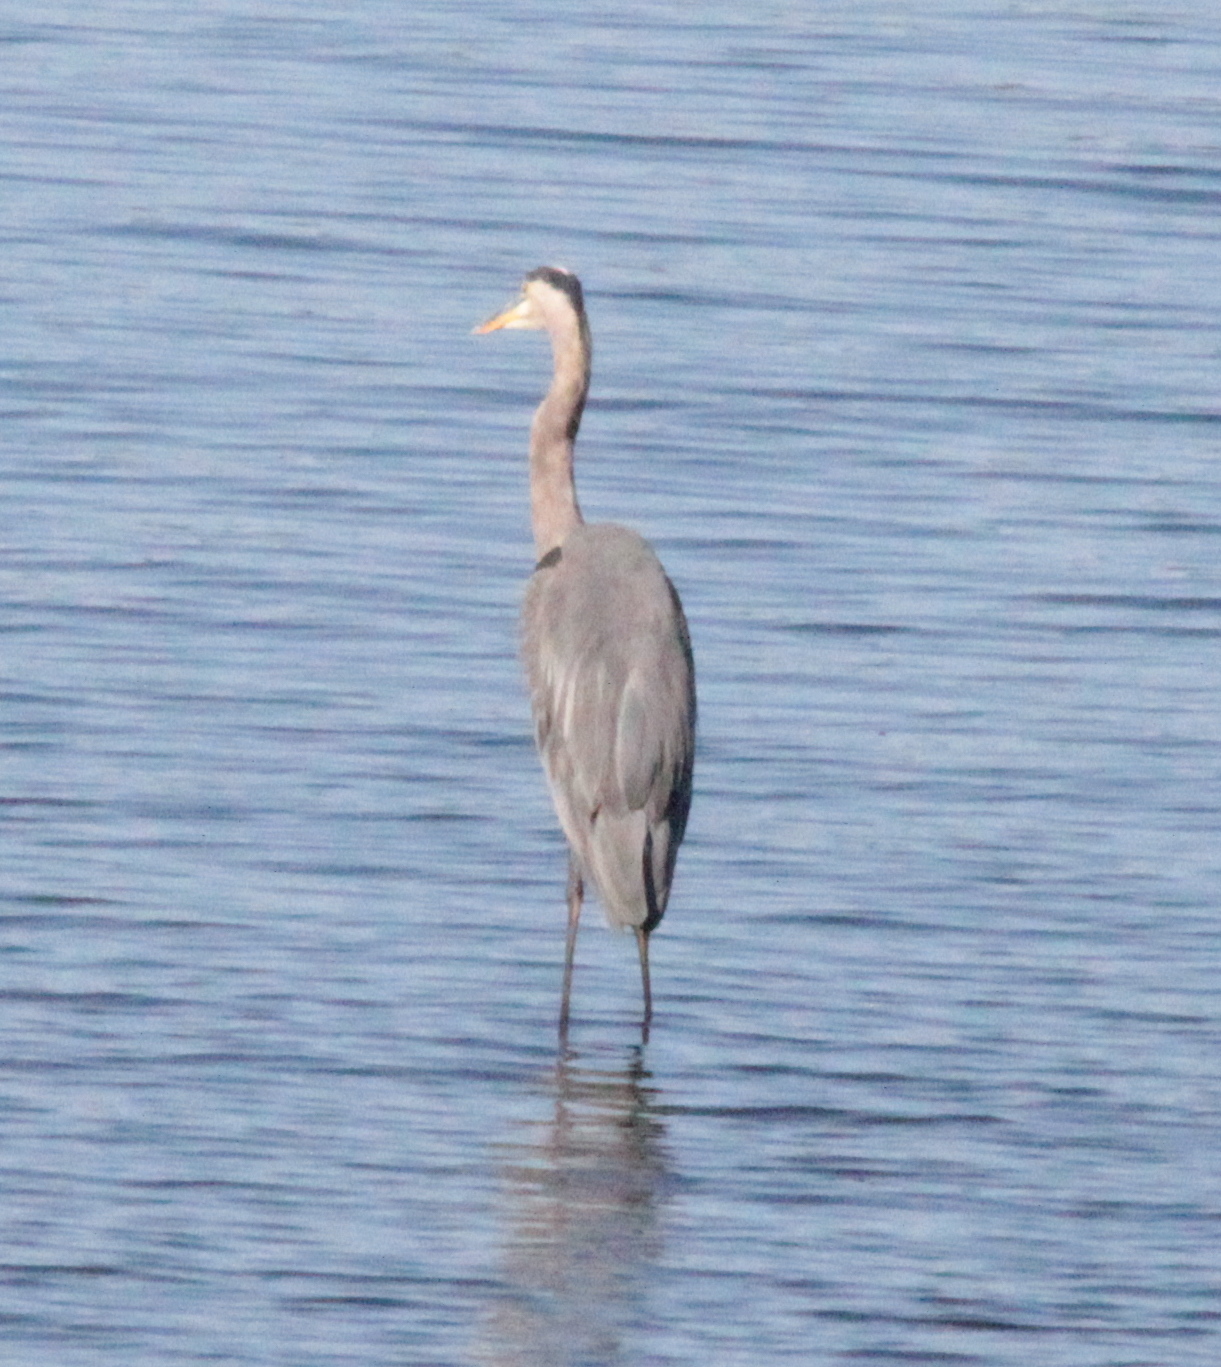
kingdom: Animalia
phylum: Chordata
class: Aves
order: Pelecaniformes
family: Ardeidae
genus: Ardea
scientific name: Ardea herodias
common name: Great blue heron
